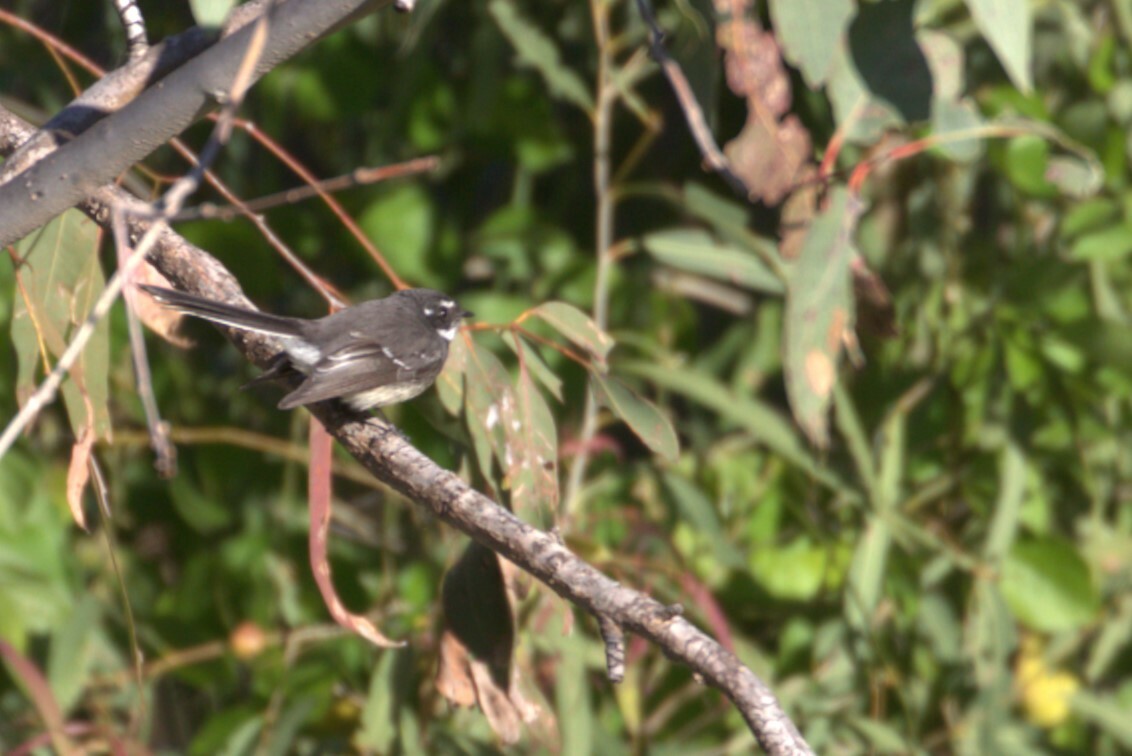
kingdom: Animalia
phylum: Chordata
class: Aves
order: Passeriformes
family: Rhipiduridae
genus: Rhipidura
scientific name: Rhipidura albiscapa
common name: Grey fantail
